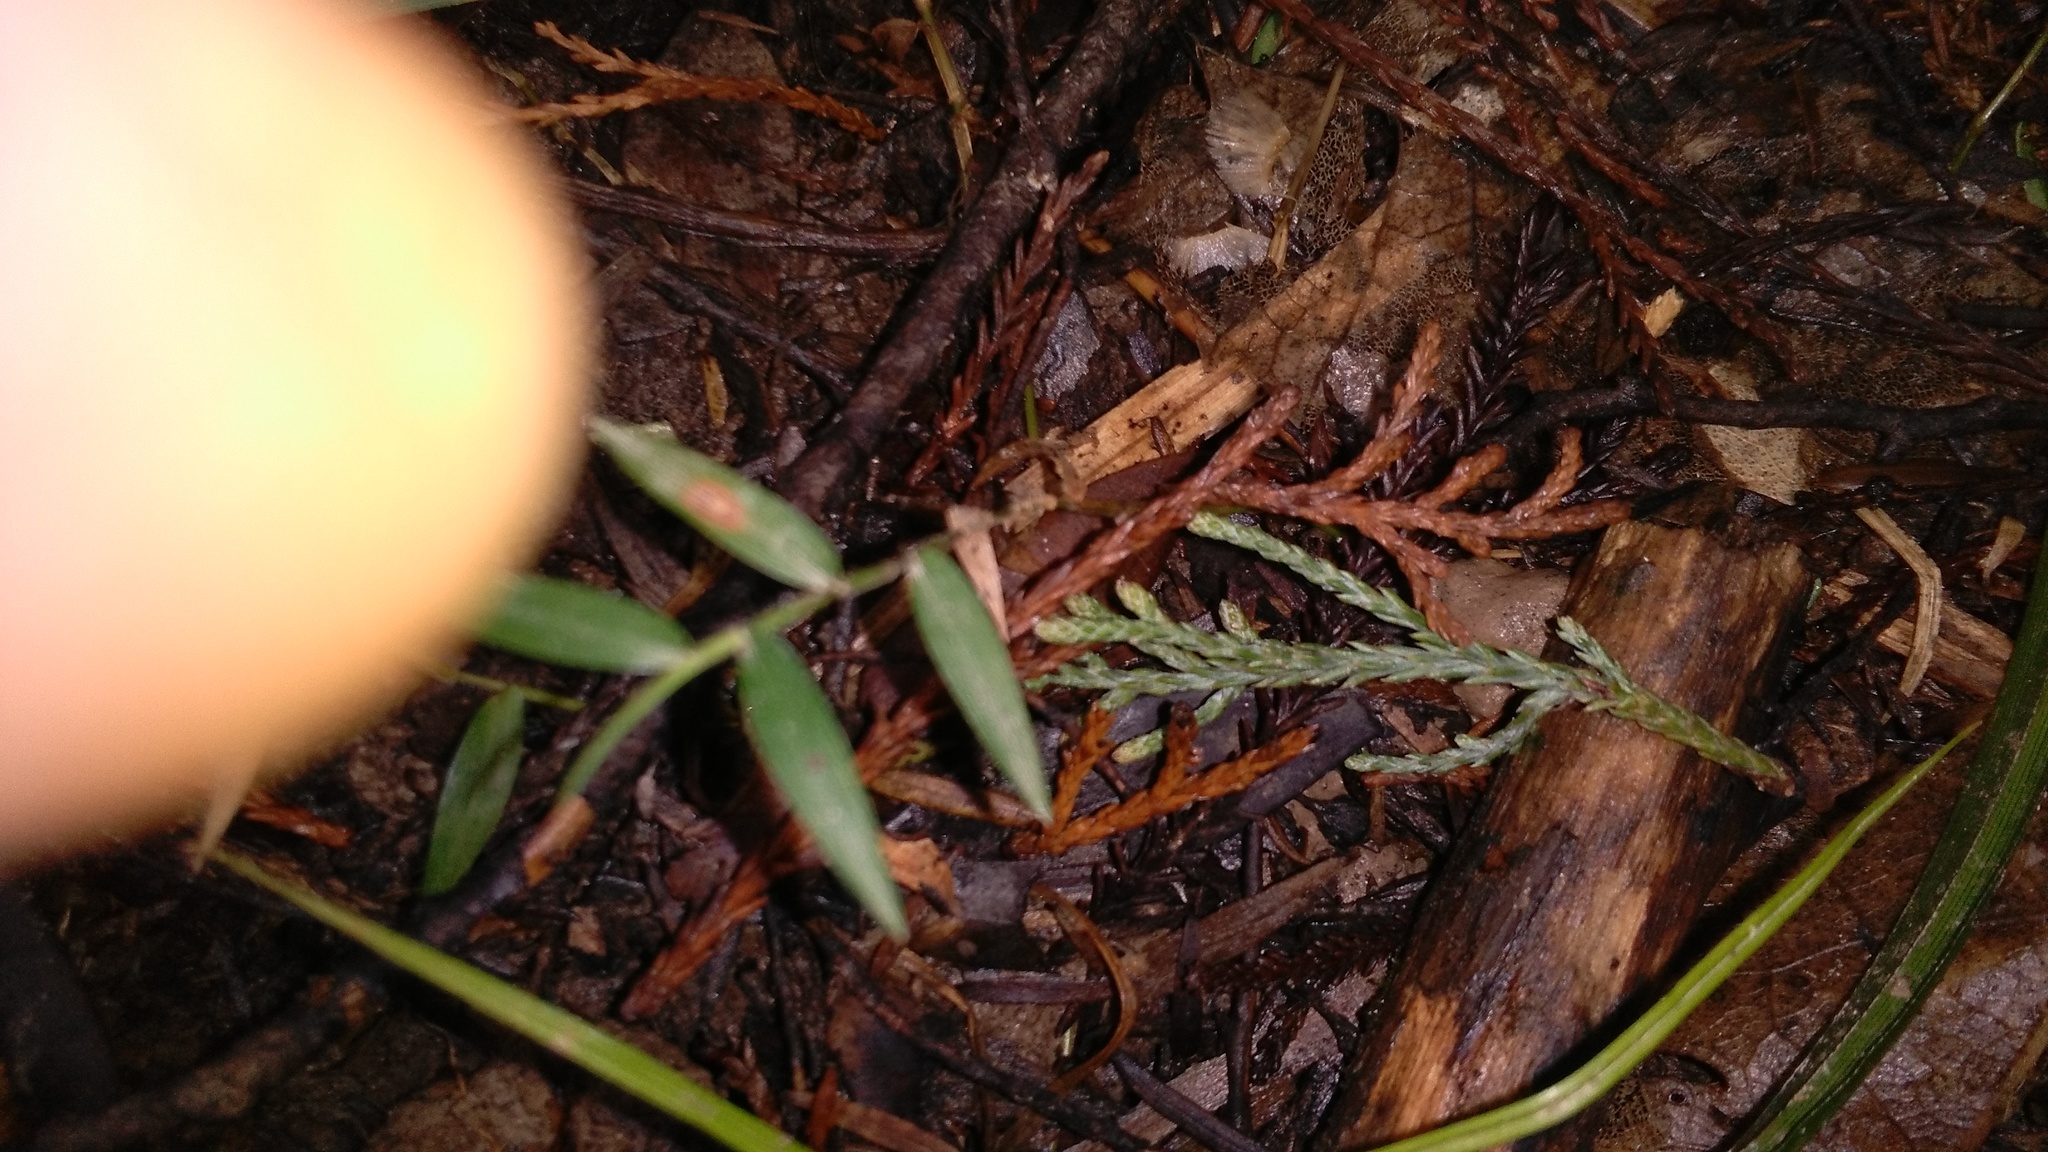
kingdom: Plantae
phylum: Tracheophyta
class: Liliopsida
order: Poales
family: Poaceae
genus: Oplismenus
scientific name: Oplismenus hirtellus
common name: Basketgrass
